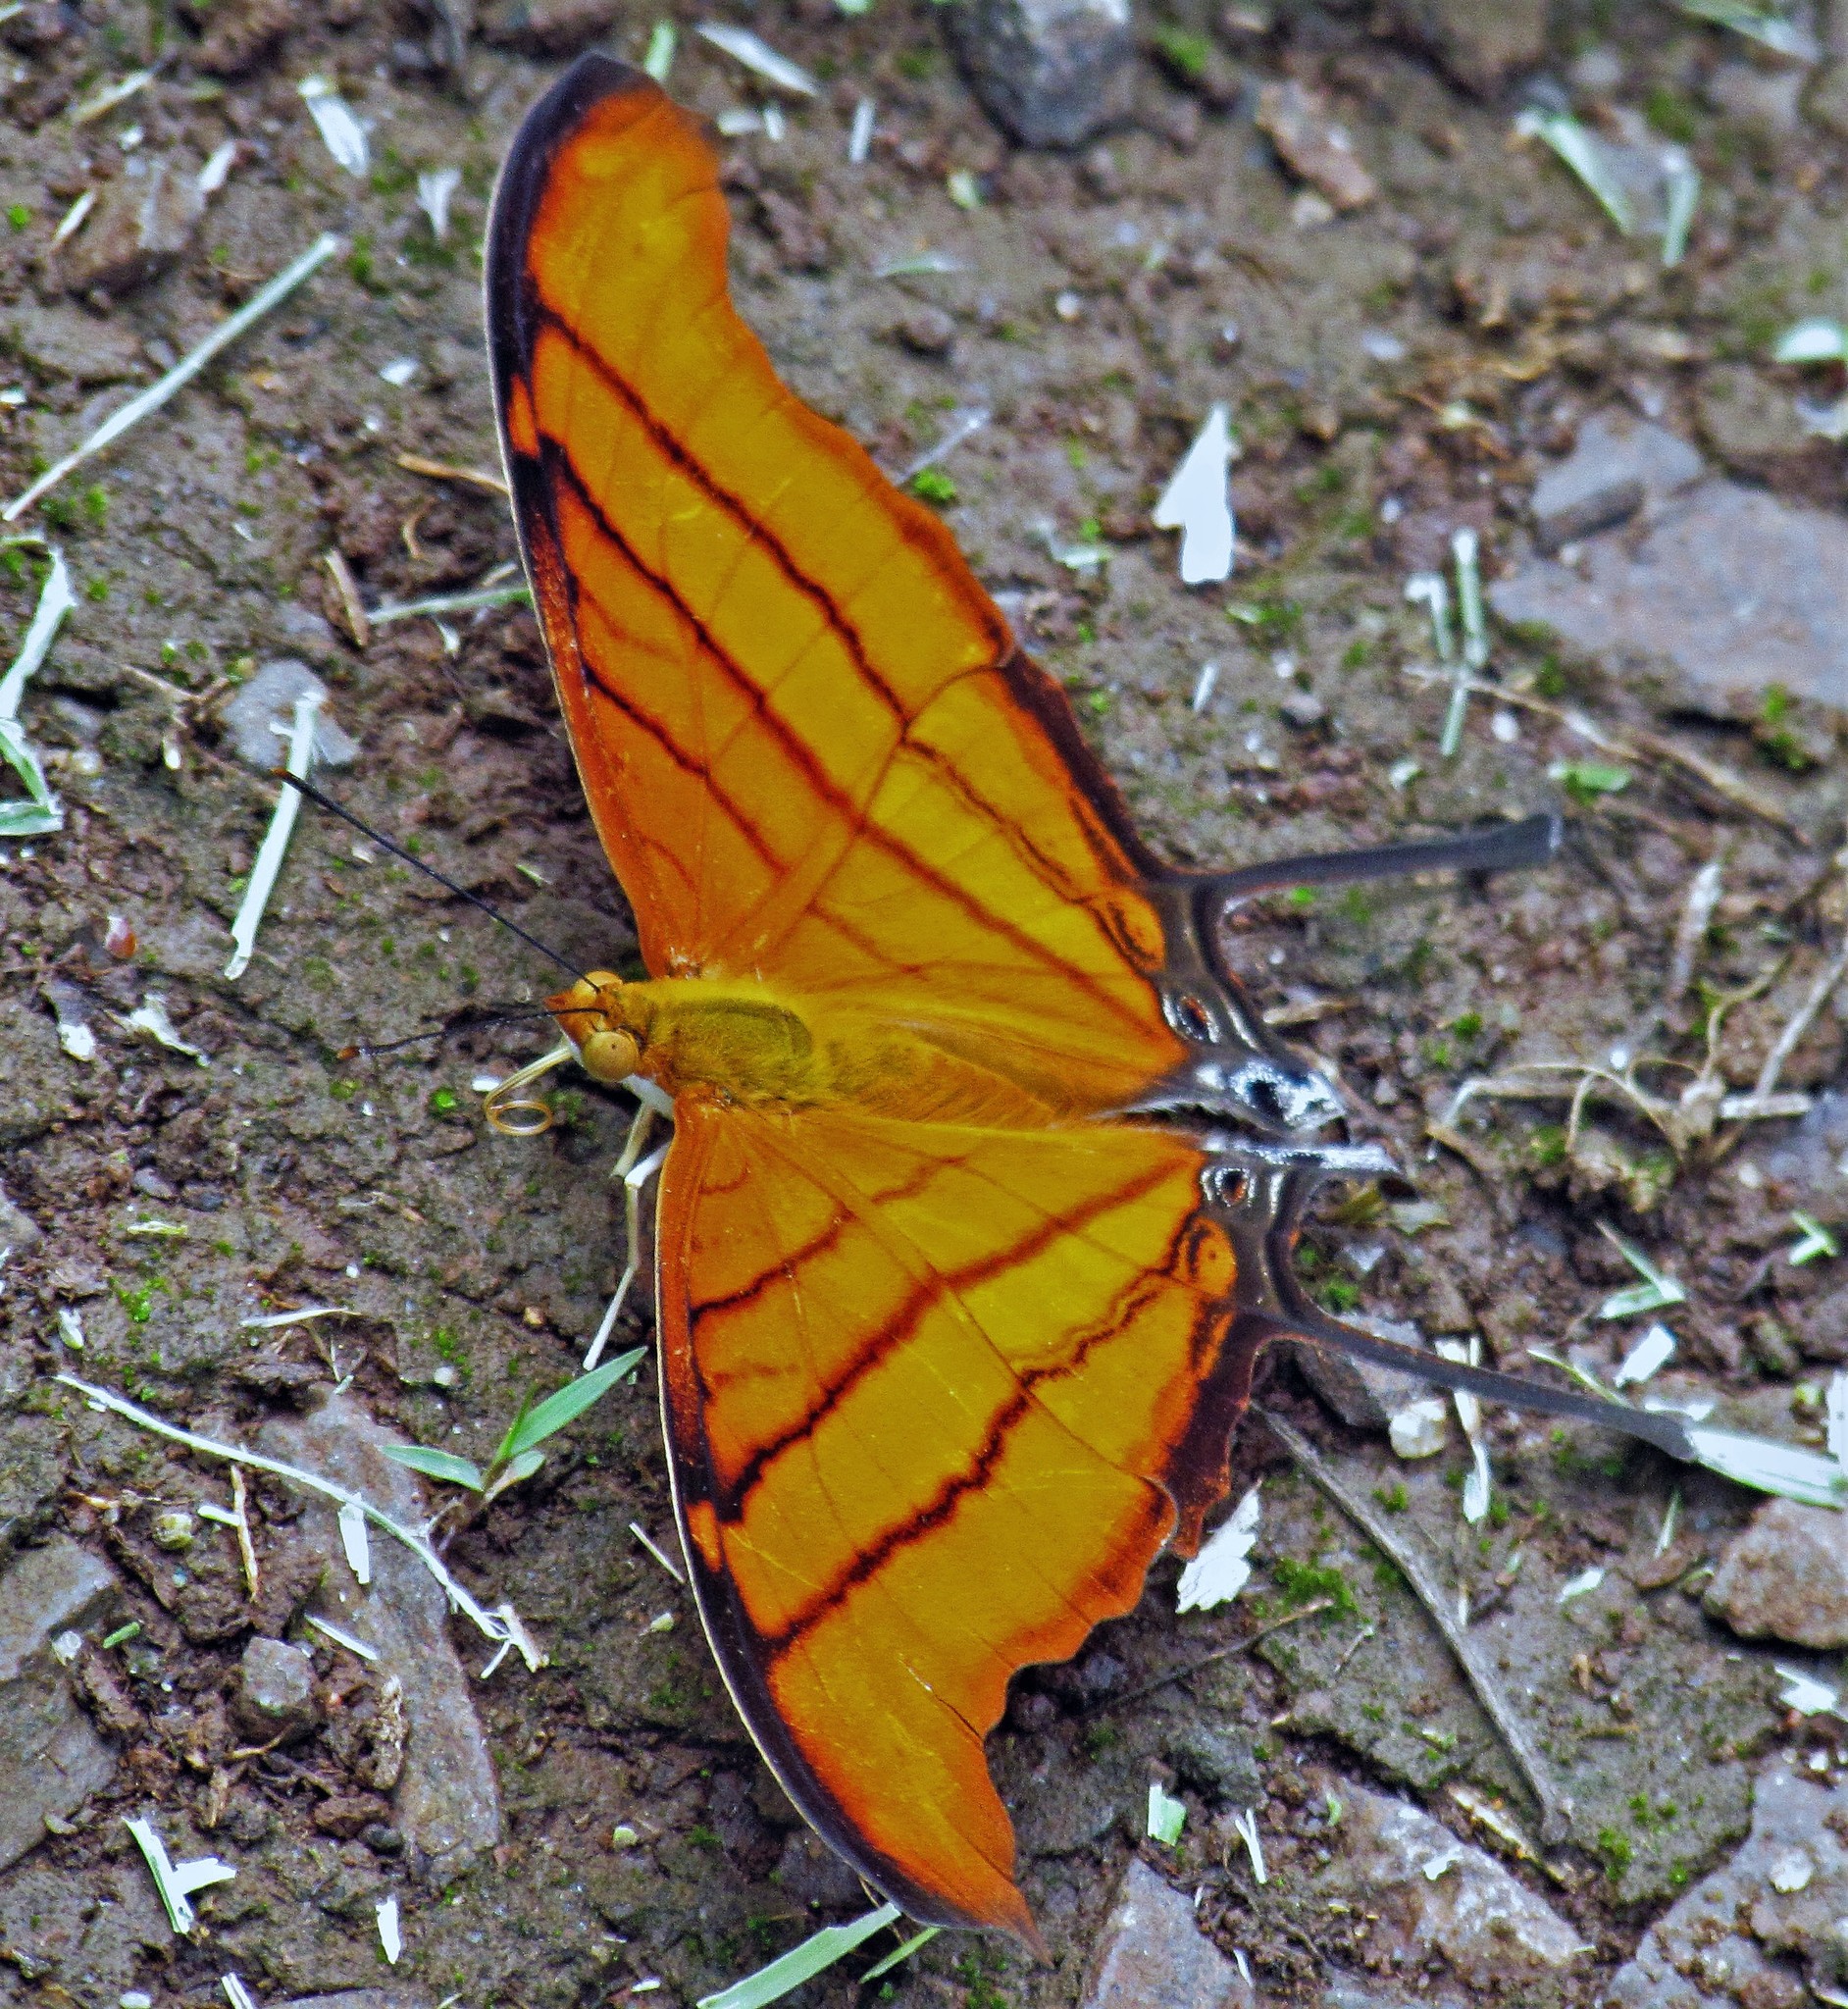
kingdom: Animalia
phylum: Arthropoda
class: Insecta
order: Lepidoptera
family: Nymphalidae
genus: Marpesia
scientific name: Marpesia petreus
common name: Red dagger wing
